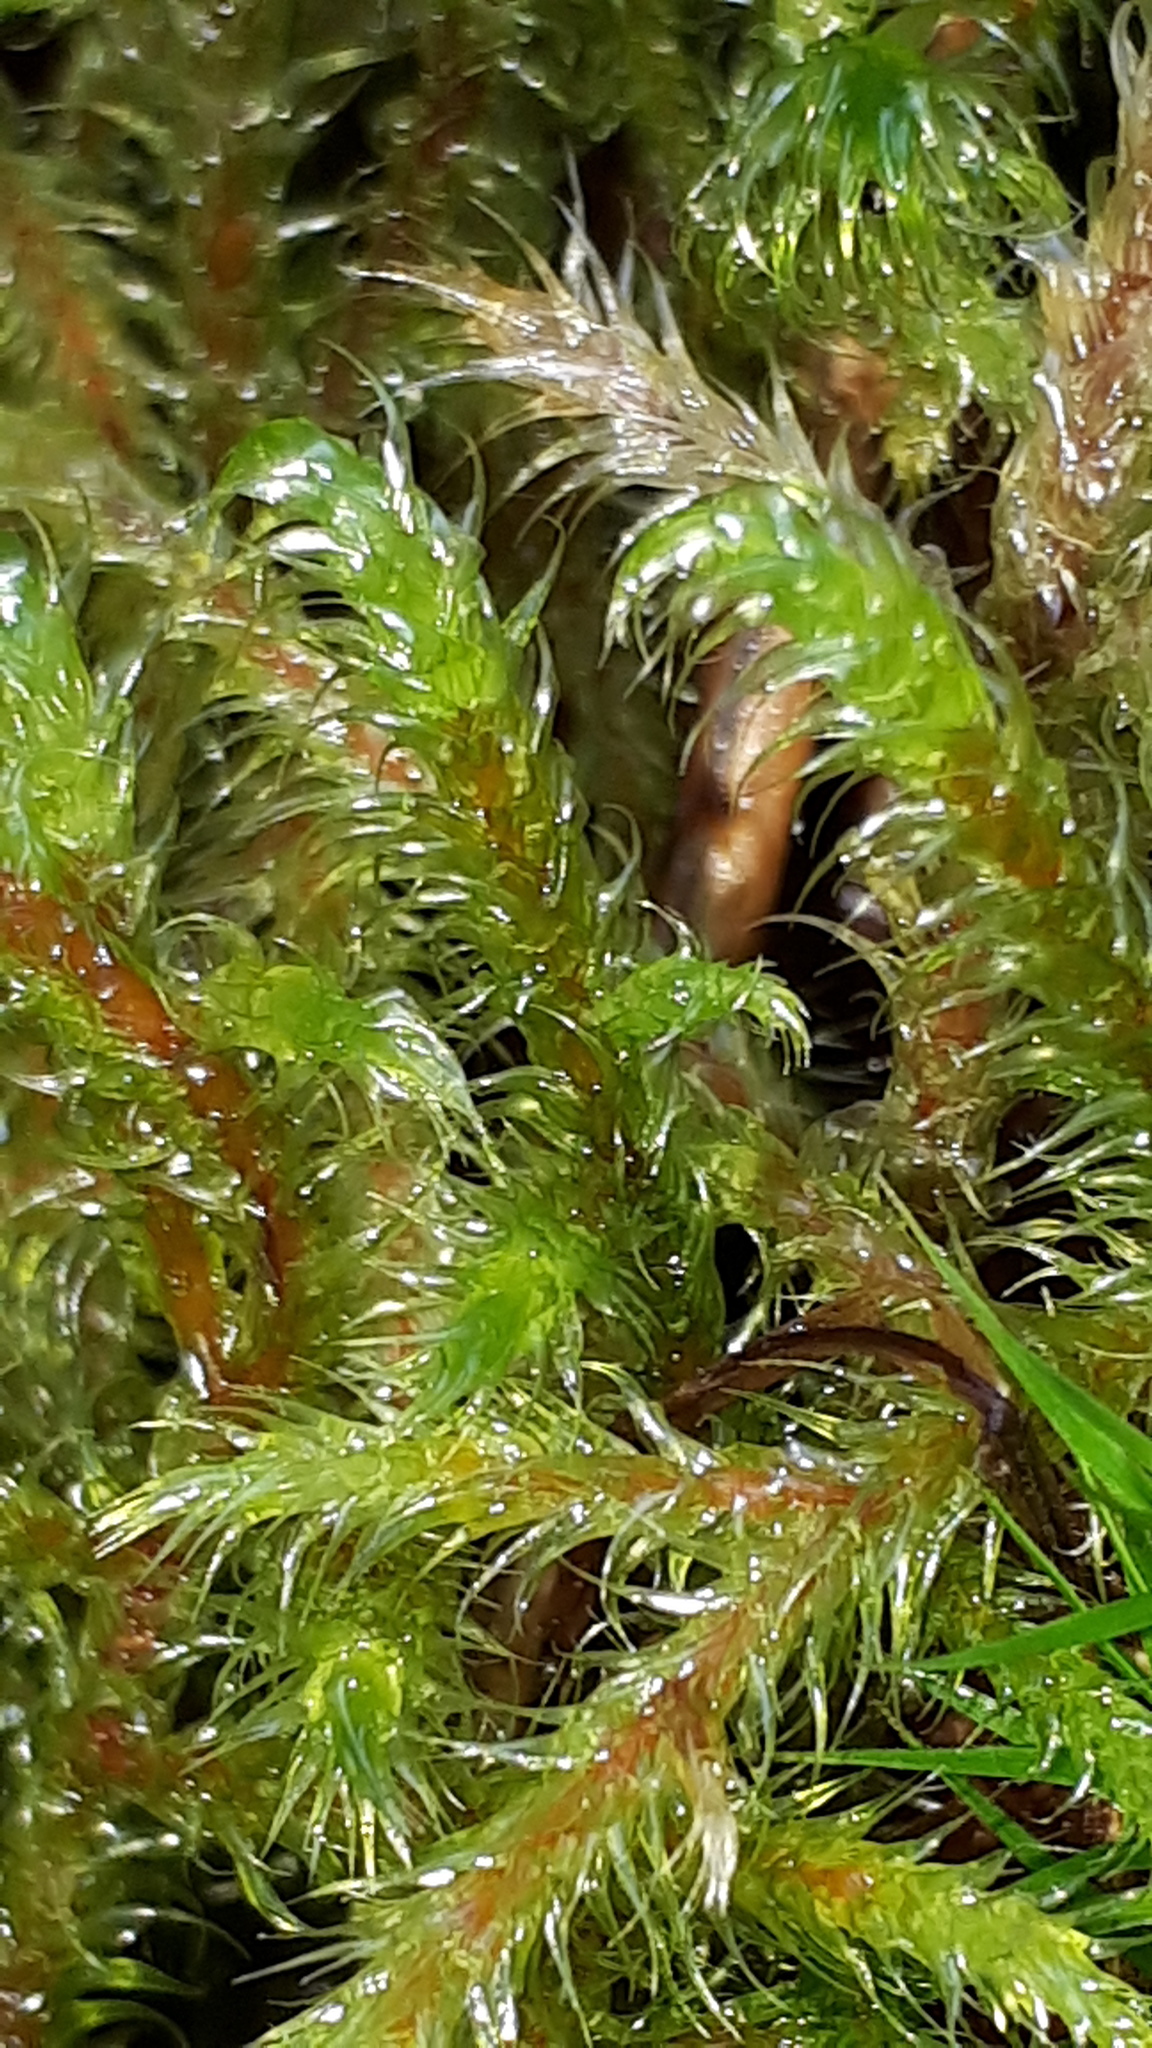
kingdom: Plantae
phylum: Bryophyta
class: Bryopsida
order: Hypnales
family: Hylocomiaceae
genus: Rhytidiadelphus
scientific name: Rhytidiadelphus loreus
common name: Lanky moss
